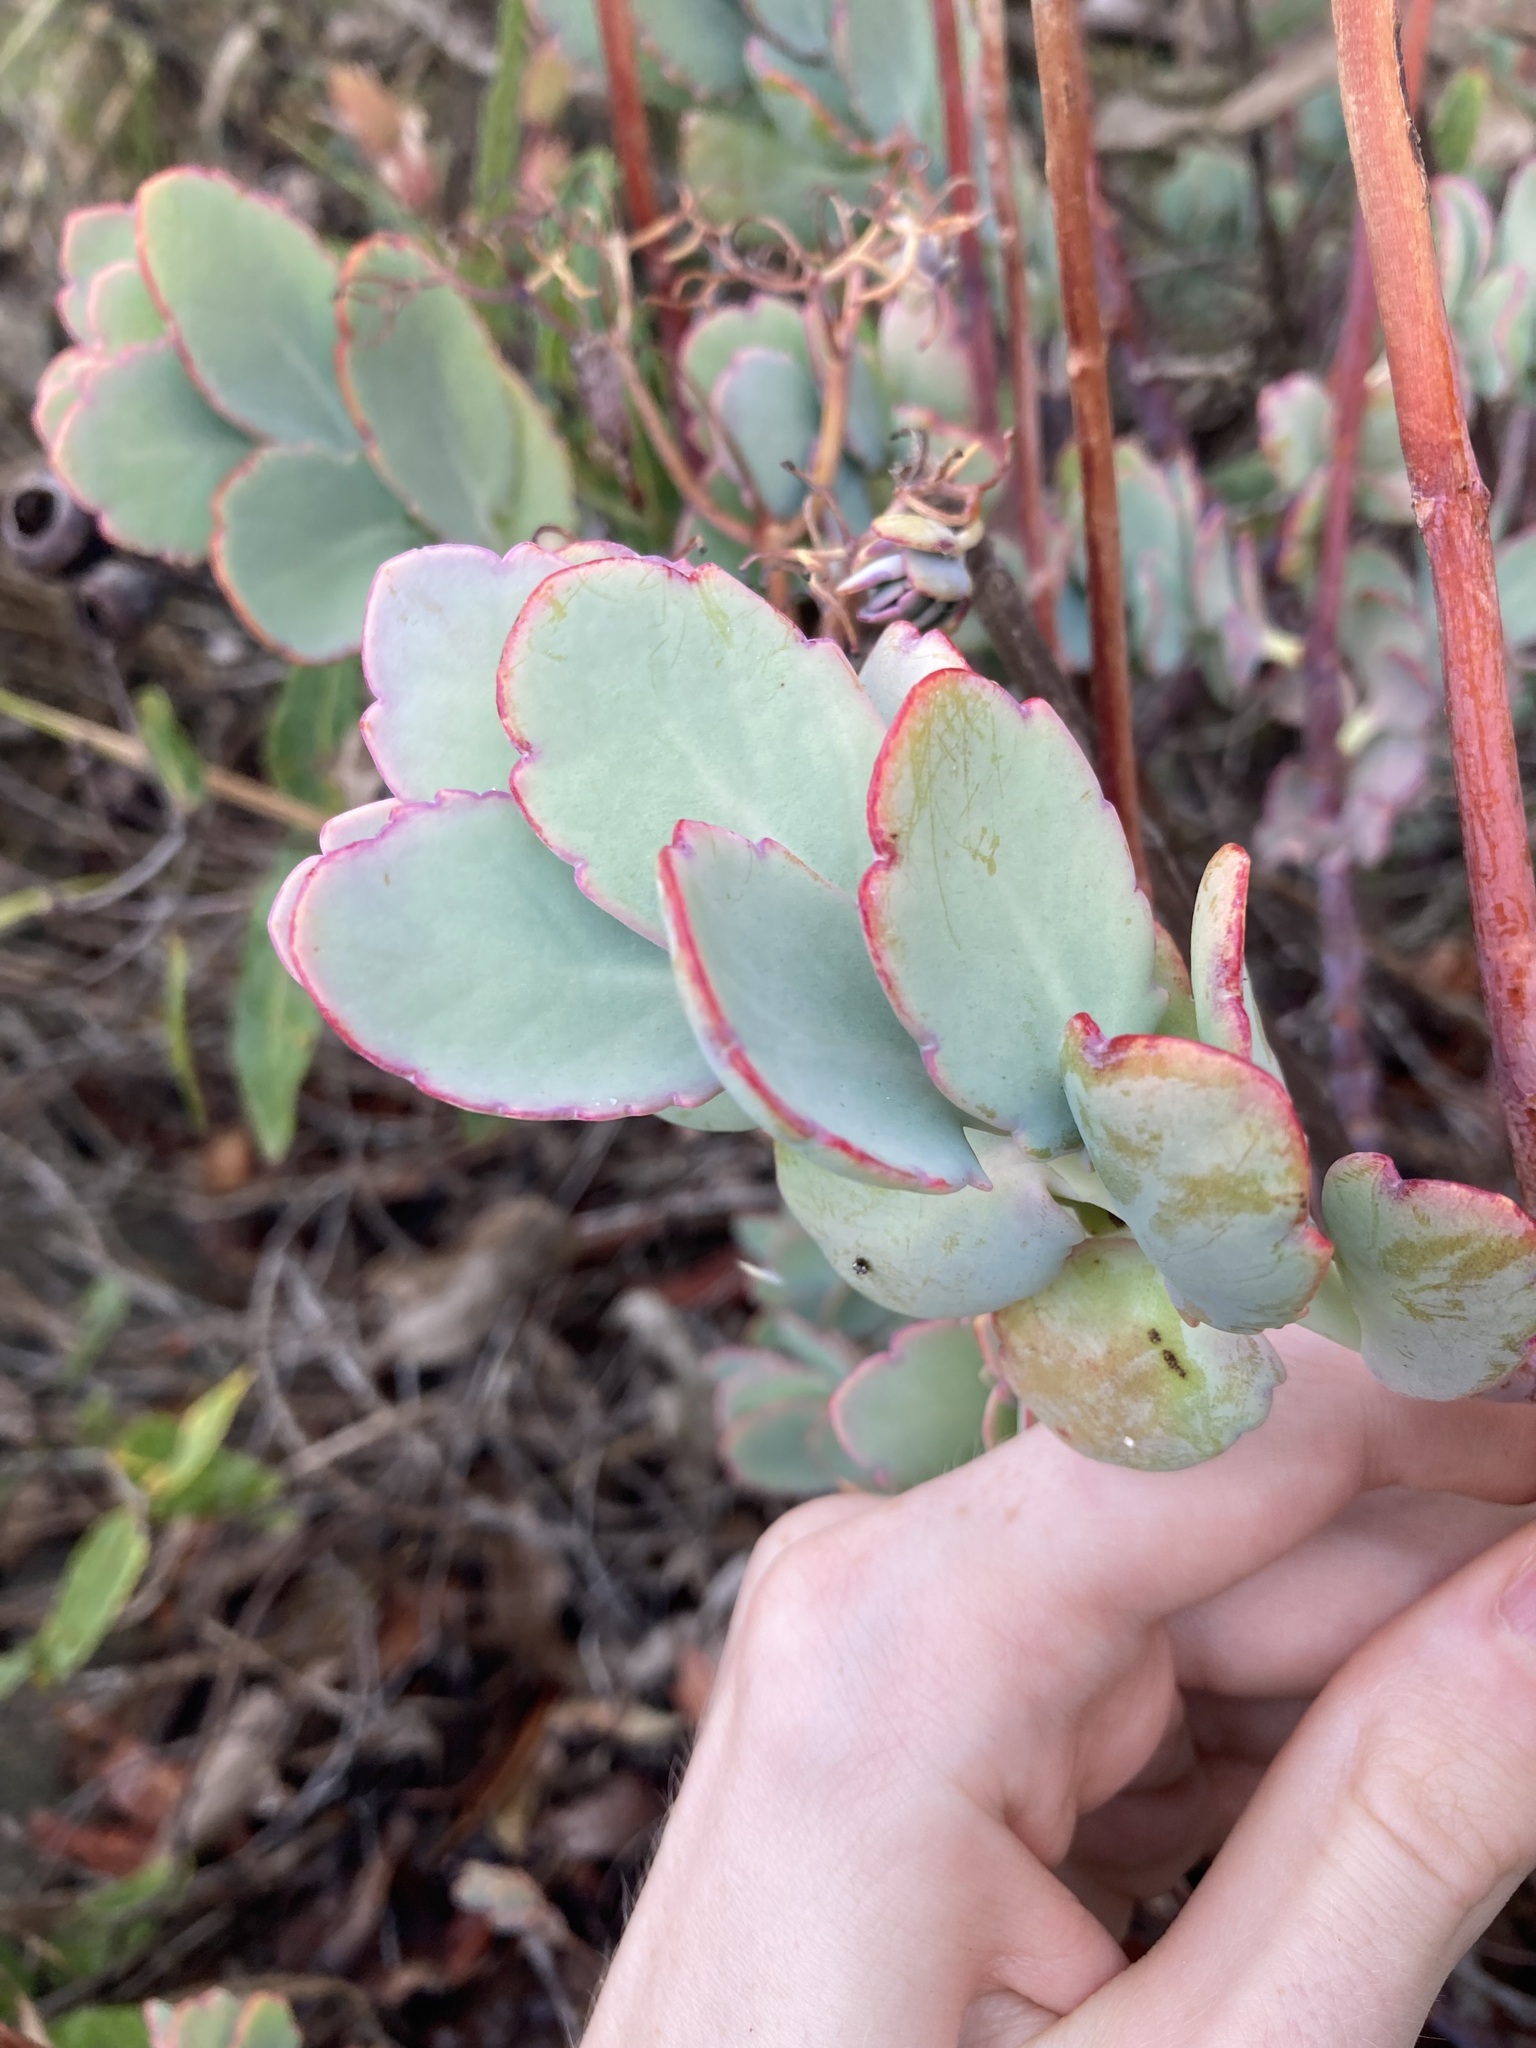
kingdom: Plantae
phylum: Tracheophyta
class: Magnoliopsida
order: Saxifragales
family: Crassulaceae
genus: Kalanchoe
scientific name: Kalanchoe fedtschenkoi
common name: Lavender scallops
